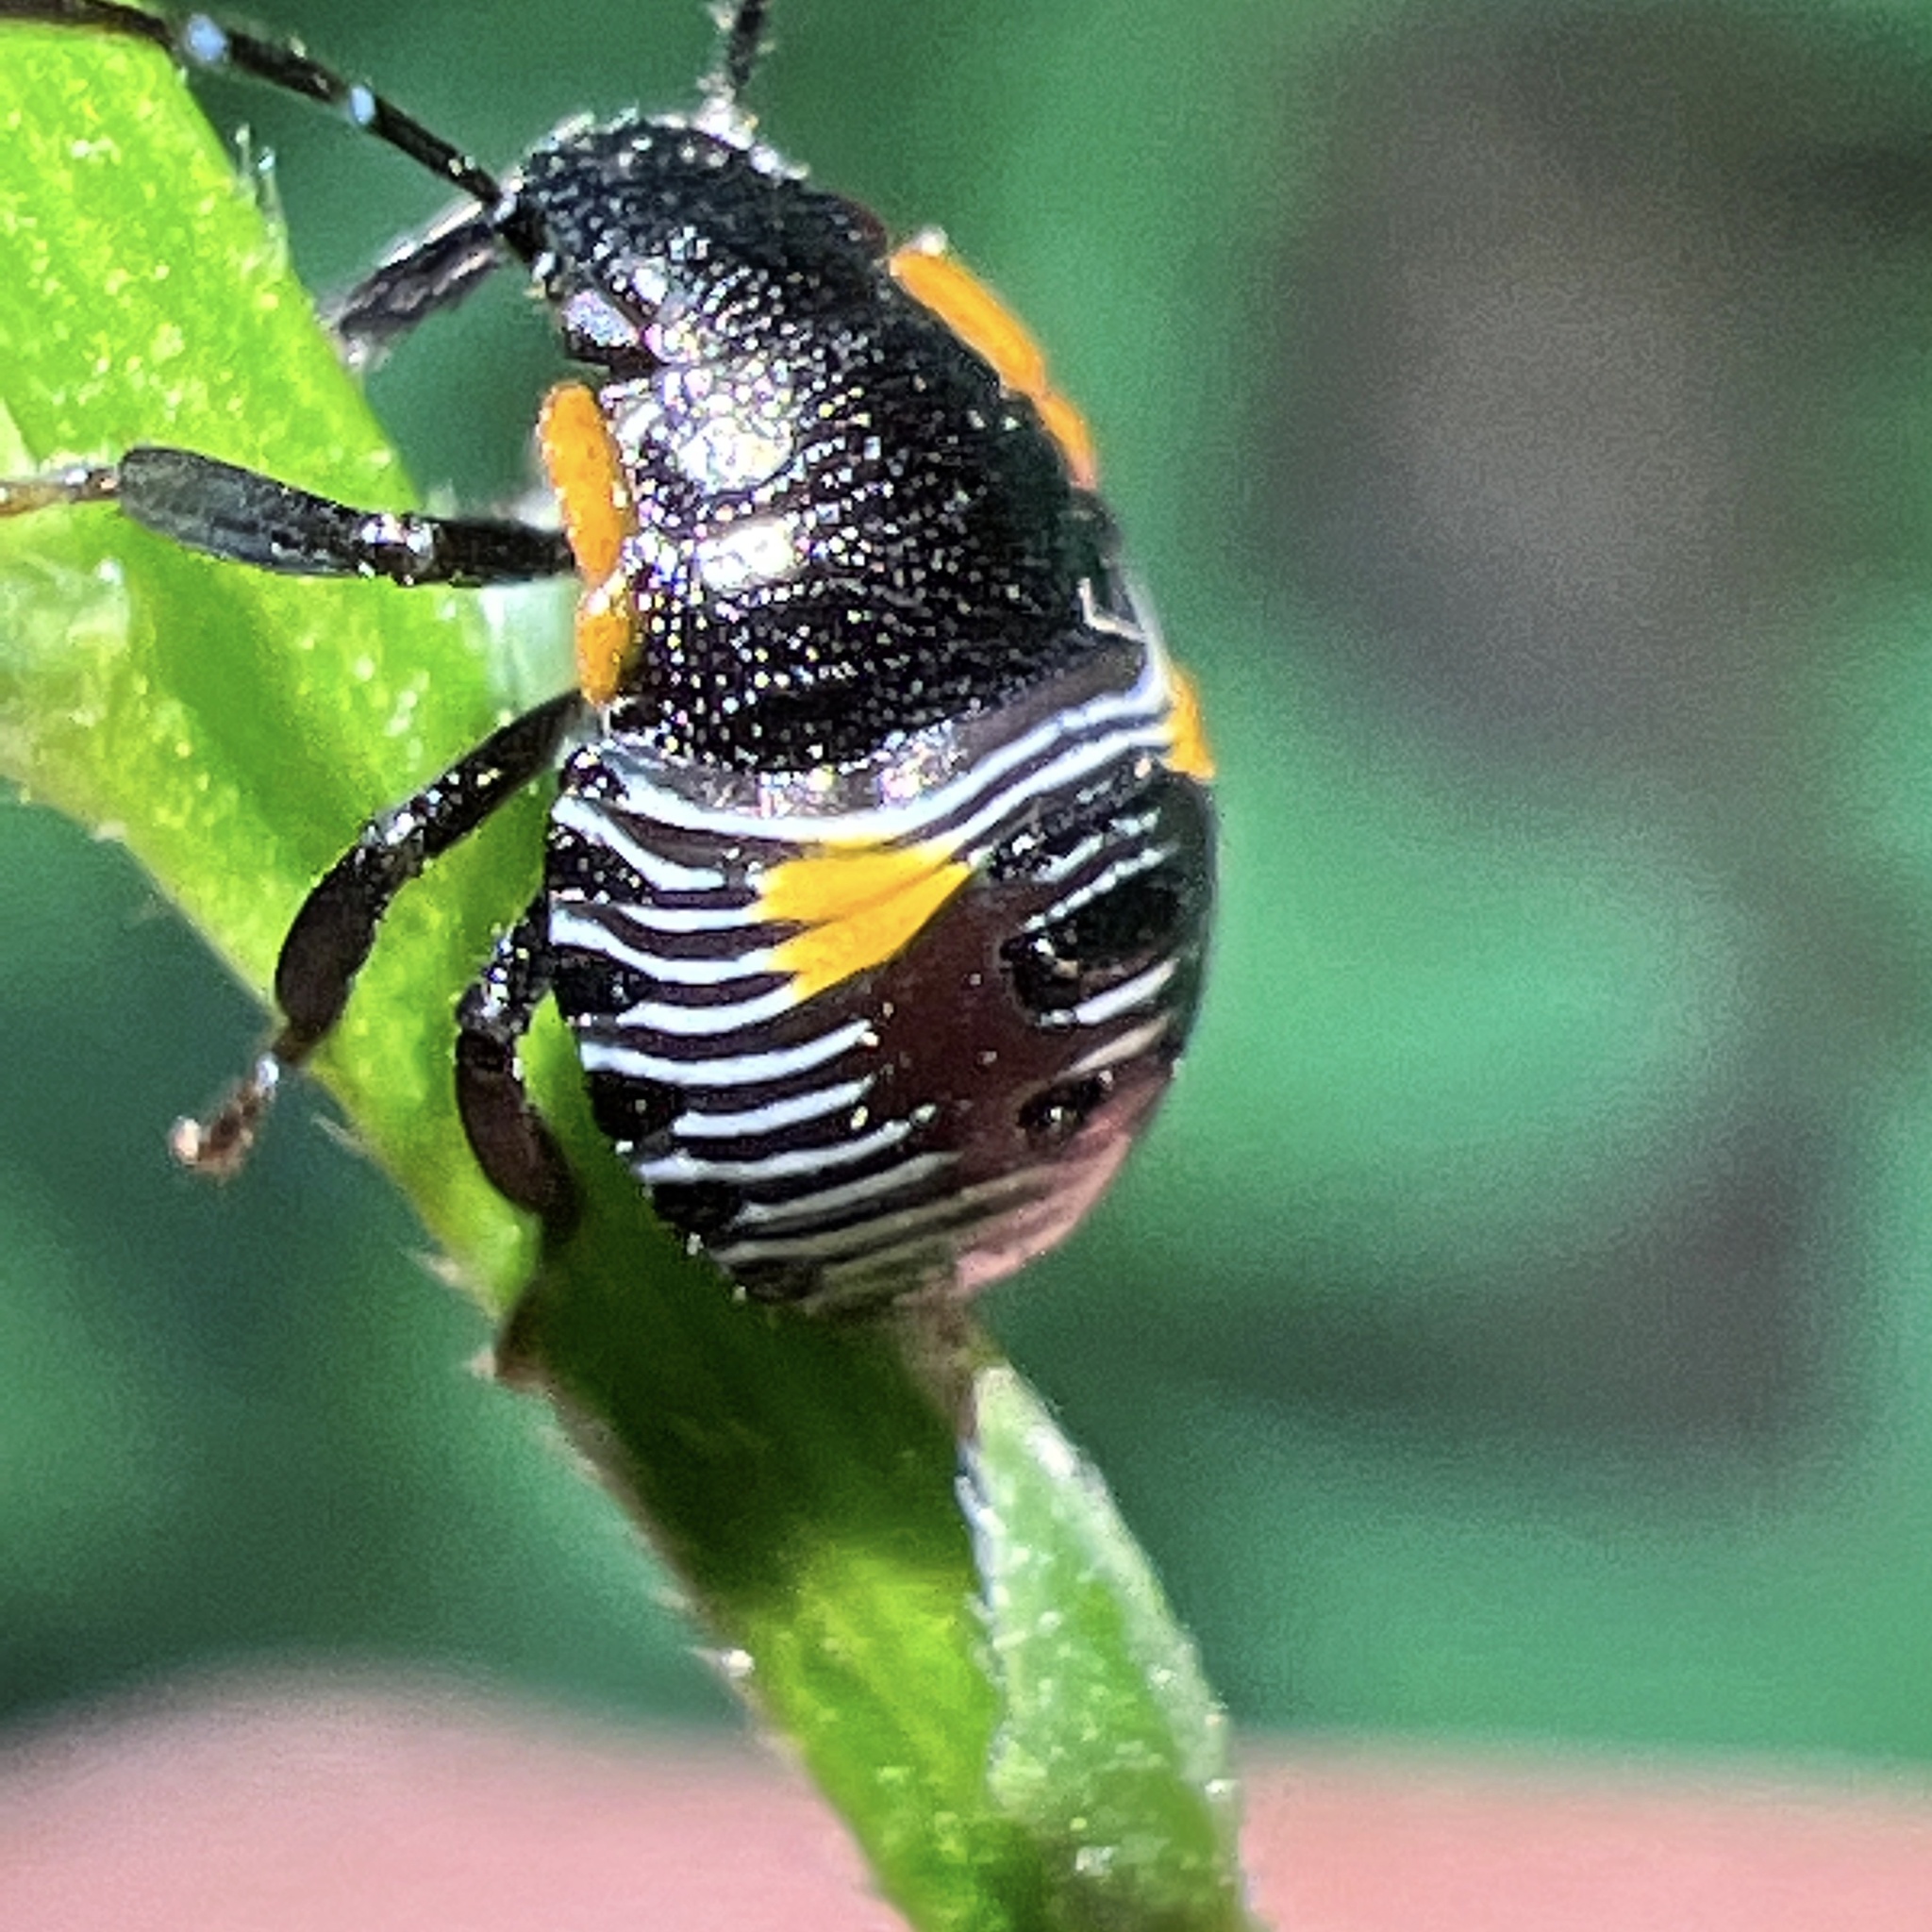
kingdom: Animalia
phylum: Arthropoda
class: Insecta
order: Hemiptera
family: Pentatomidae
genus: Chinavia
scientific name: Chinavia hilaris
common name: Green stink bug
